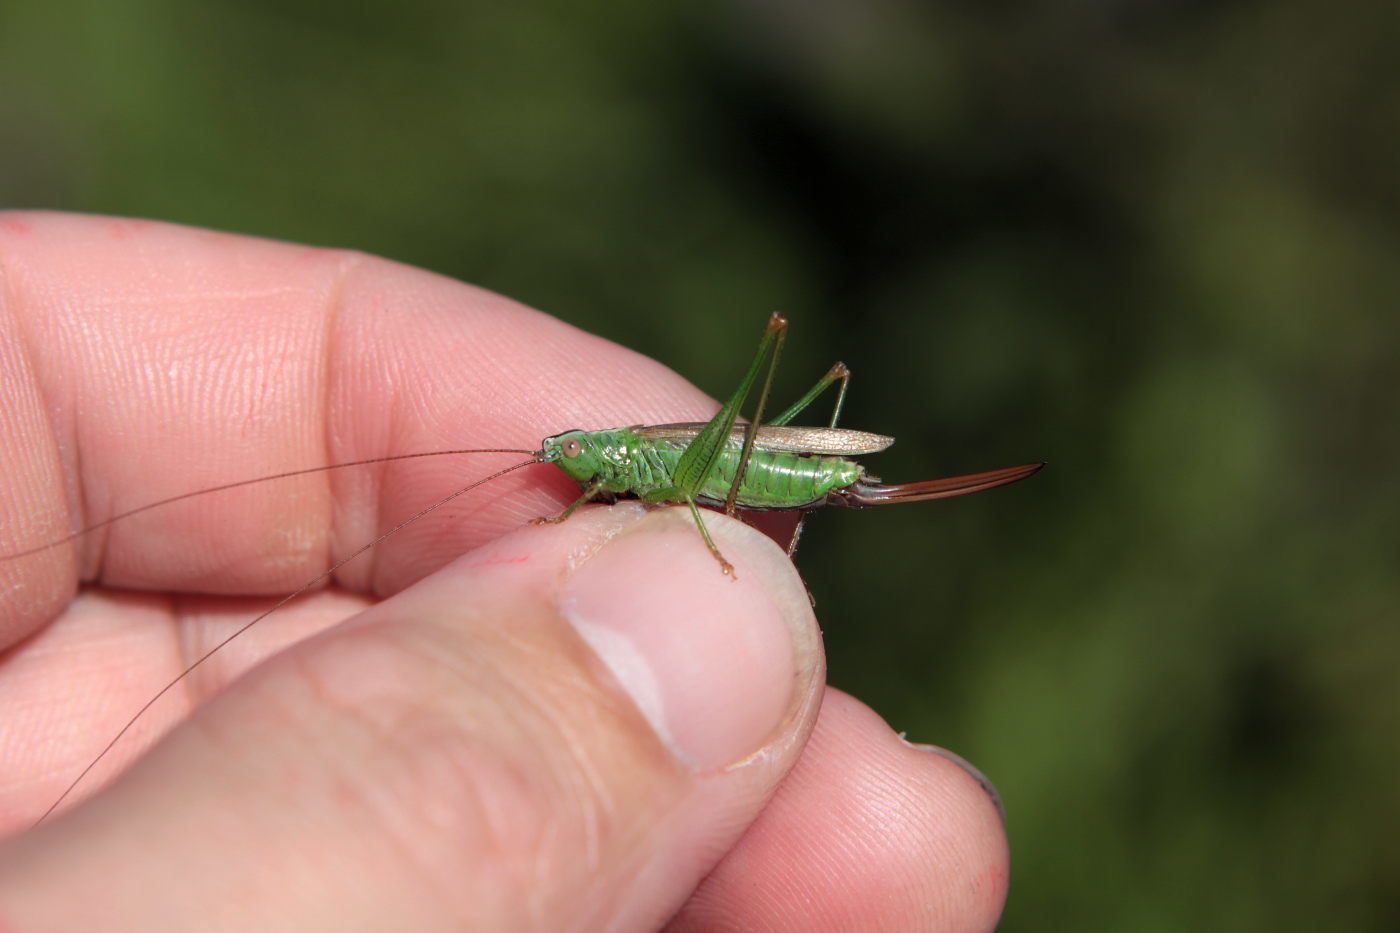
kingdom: Animalia
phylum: Arthropoda
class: Insecta
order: Orthoptera
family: Tettigoniidae
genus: Conocephalus
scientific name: Conocephalus fuscus
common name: Long-winged conehead
